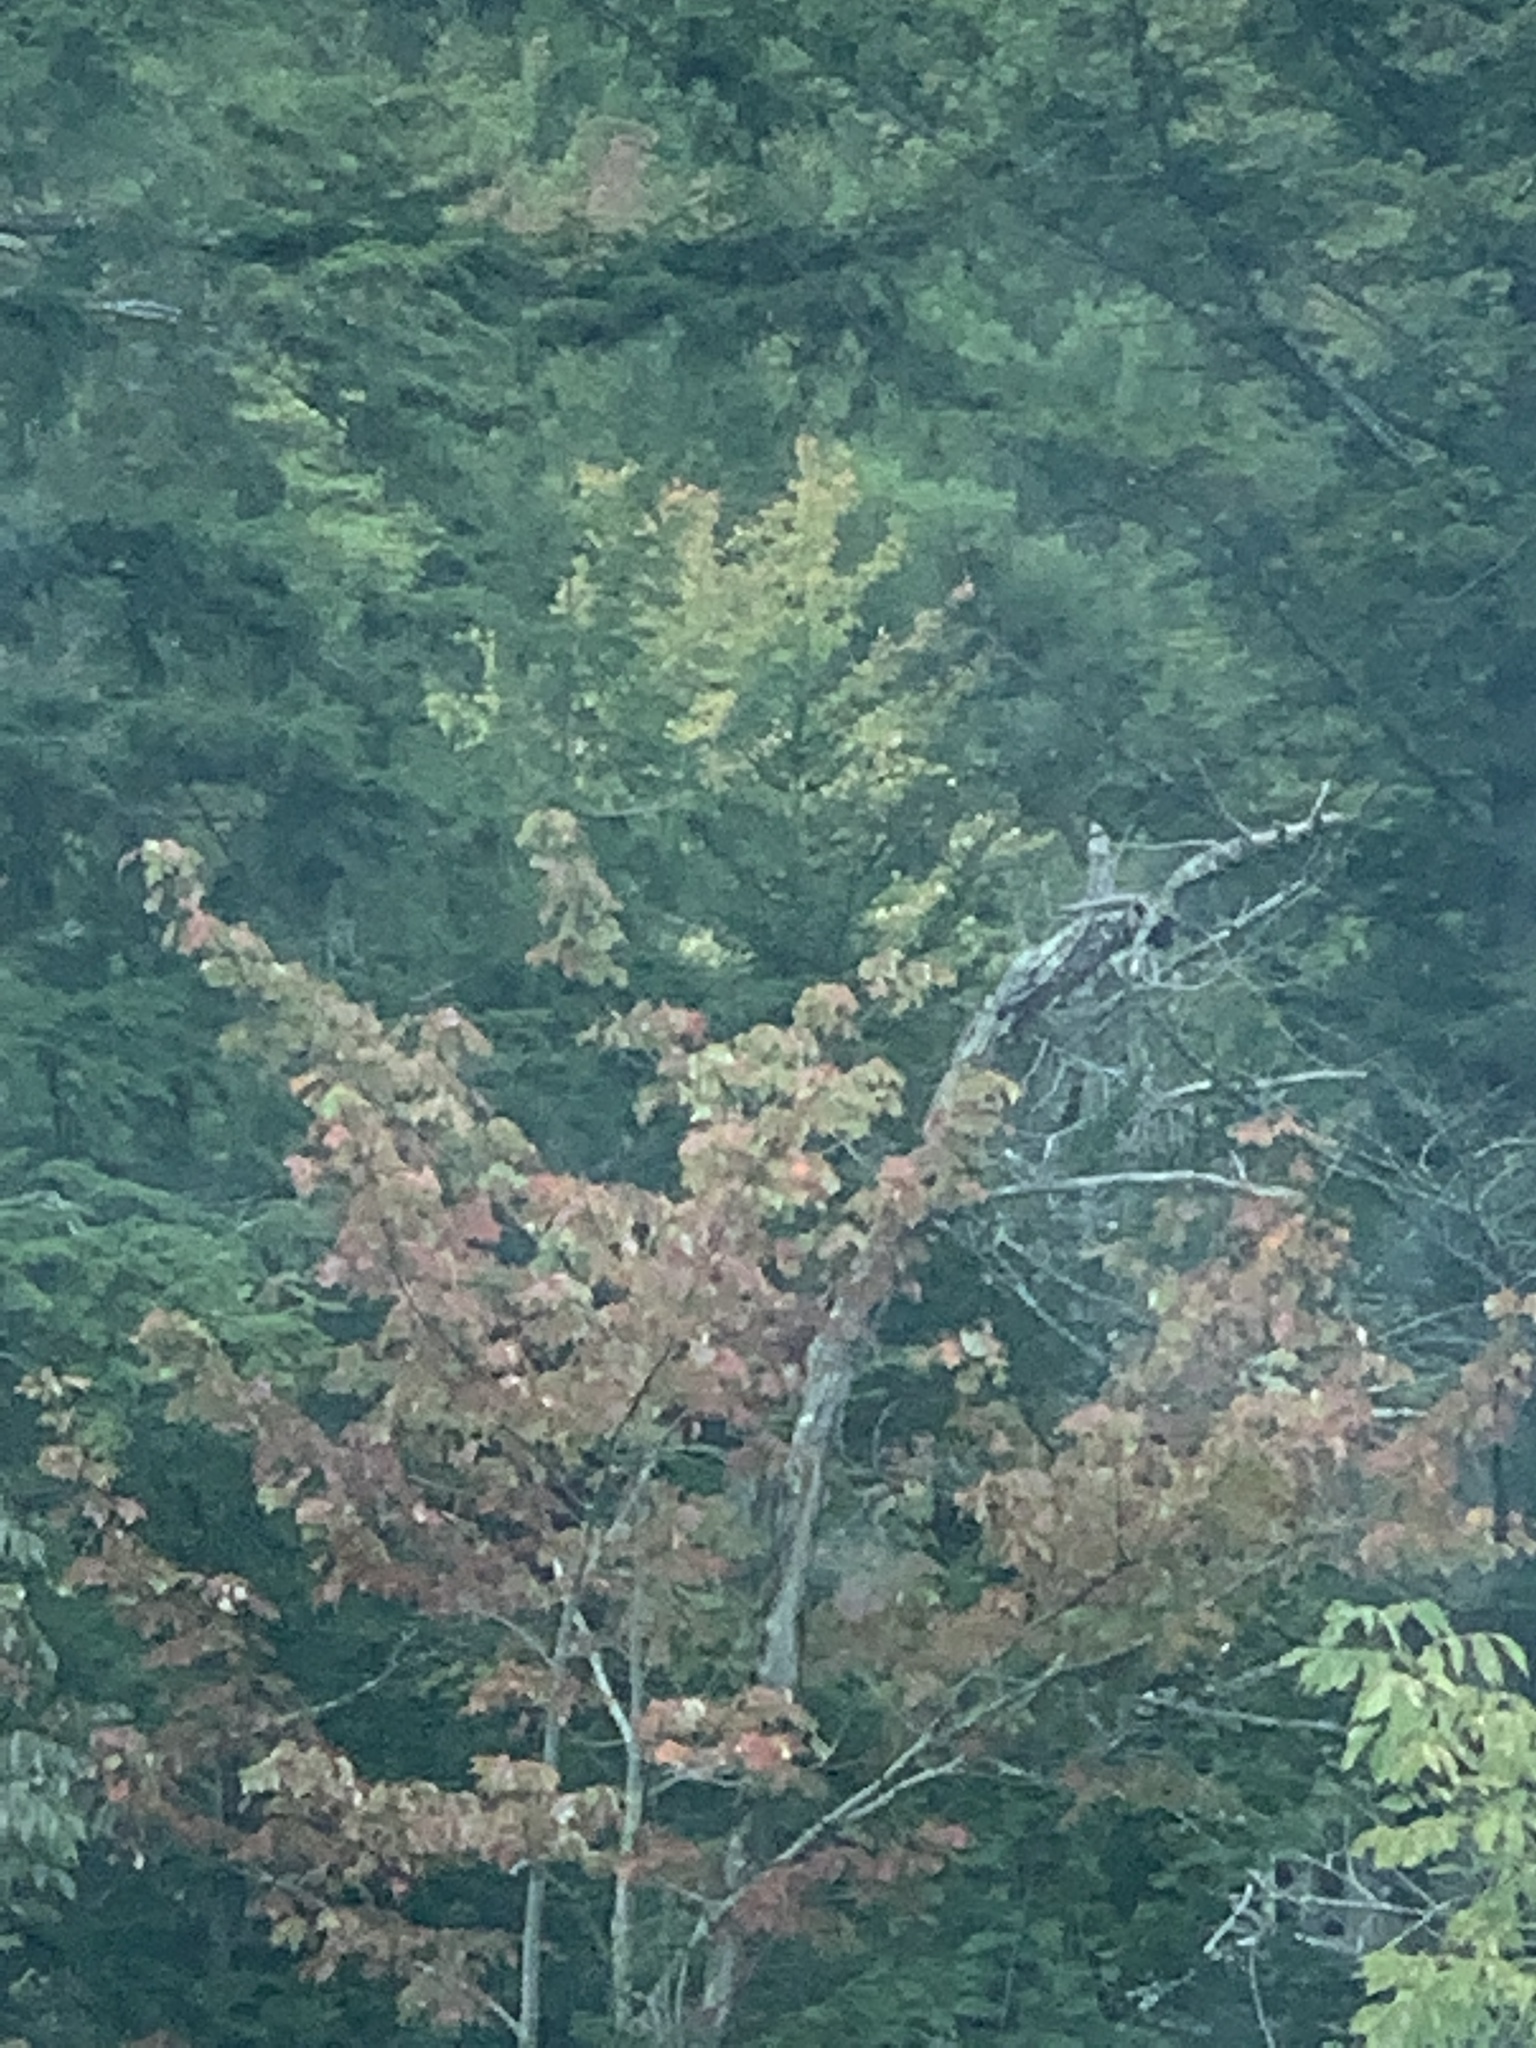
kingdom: Plantae
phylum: Tracheophyta
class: Magnoliopsida
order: Sapindales
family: Sapindaceae
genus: Acer
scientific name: Acer rubrum
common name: Red maple
